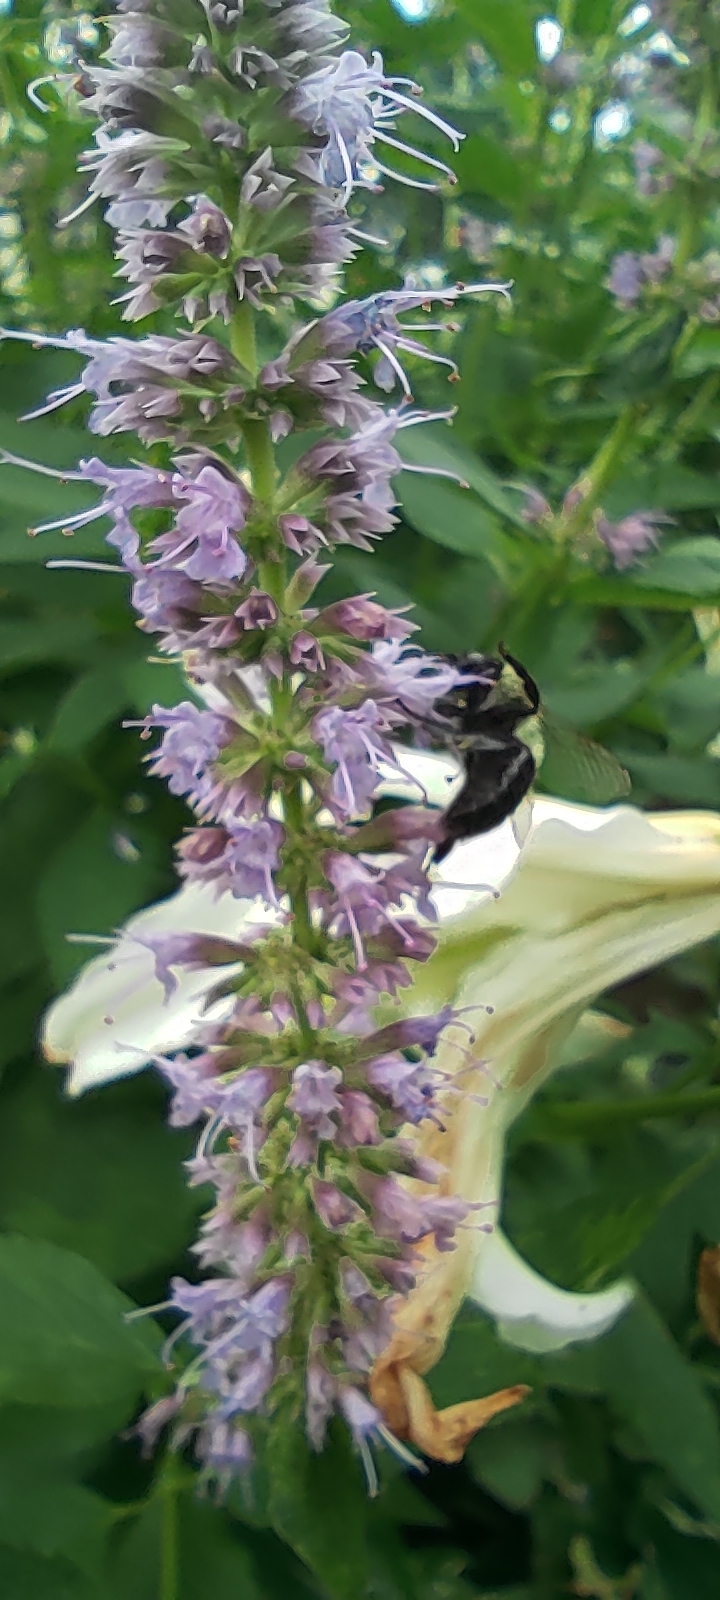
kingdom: Animalia
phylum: Arthropoda
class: Insecta
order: Hymenoptera
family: Apidae
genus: Bombus
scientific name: Bombus impatiens
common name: Common eastern bumble bee
